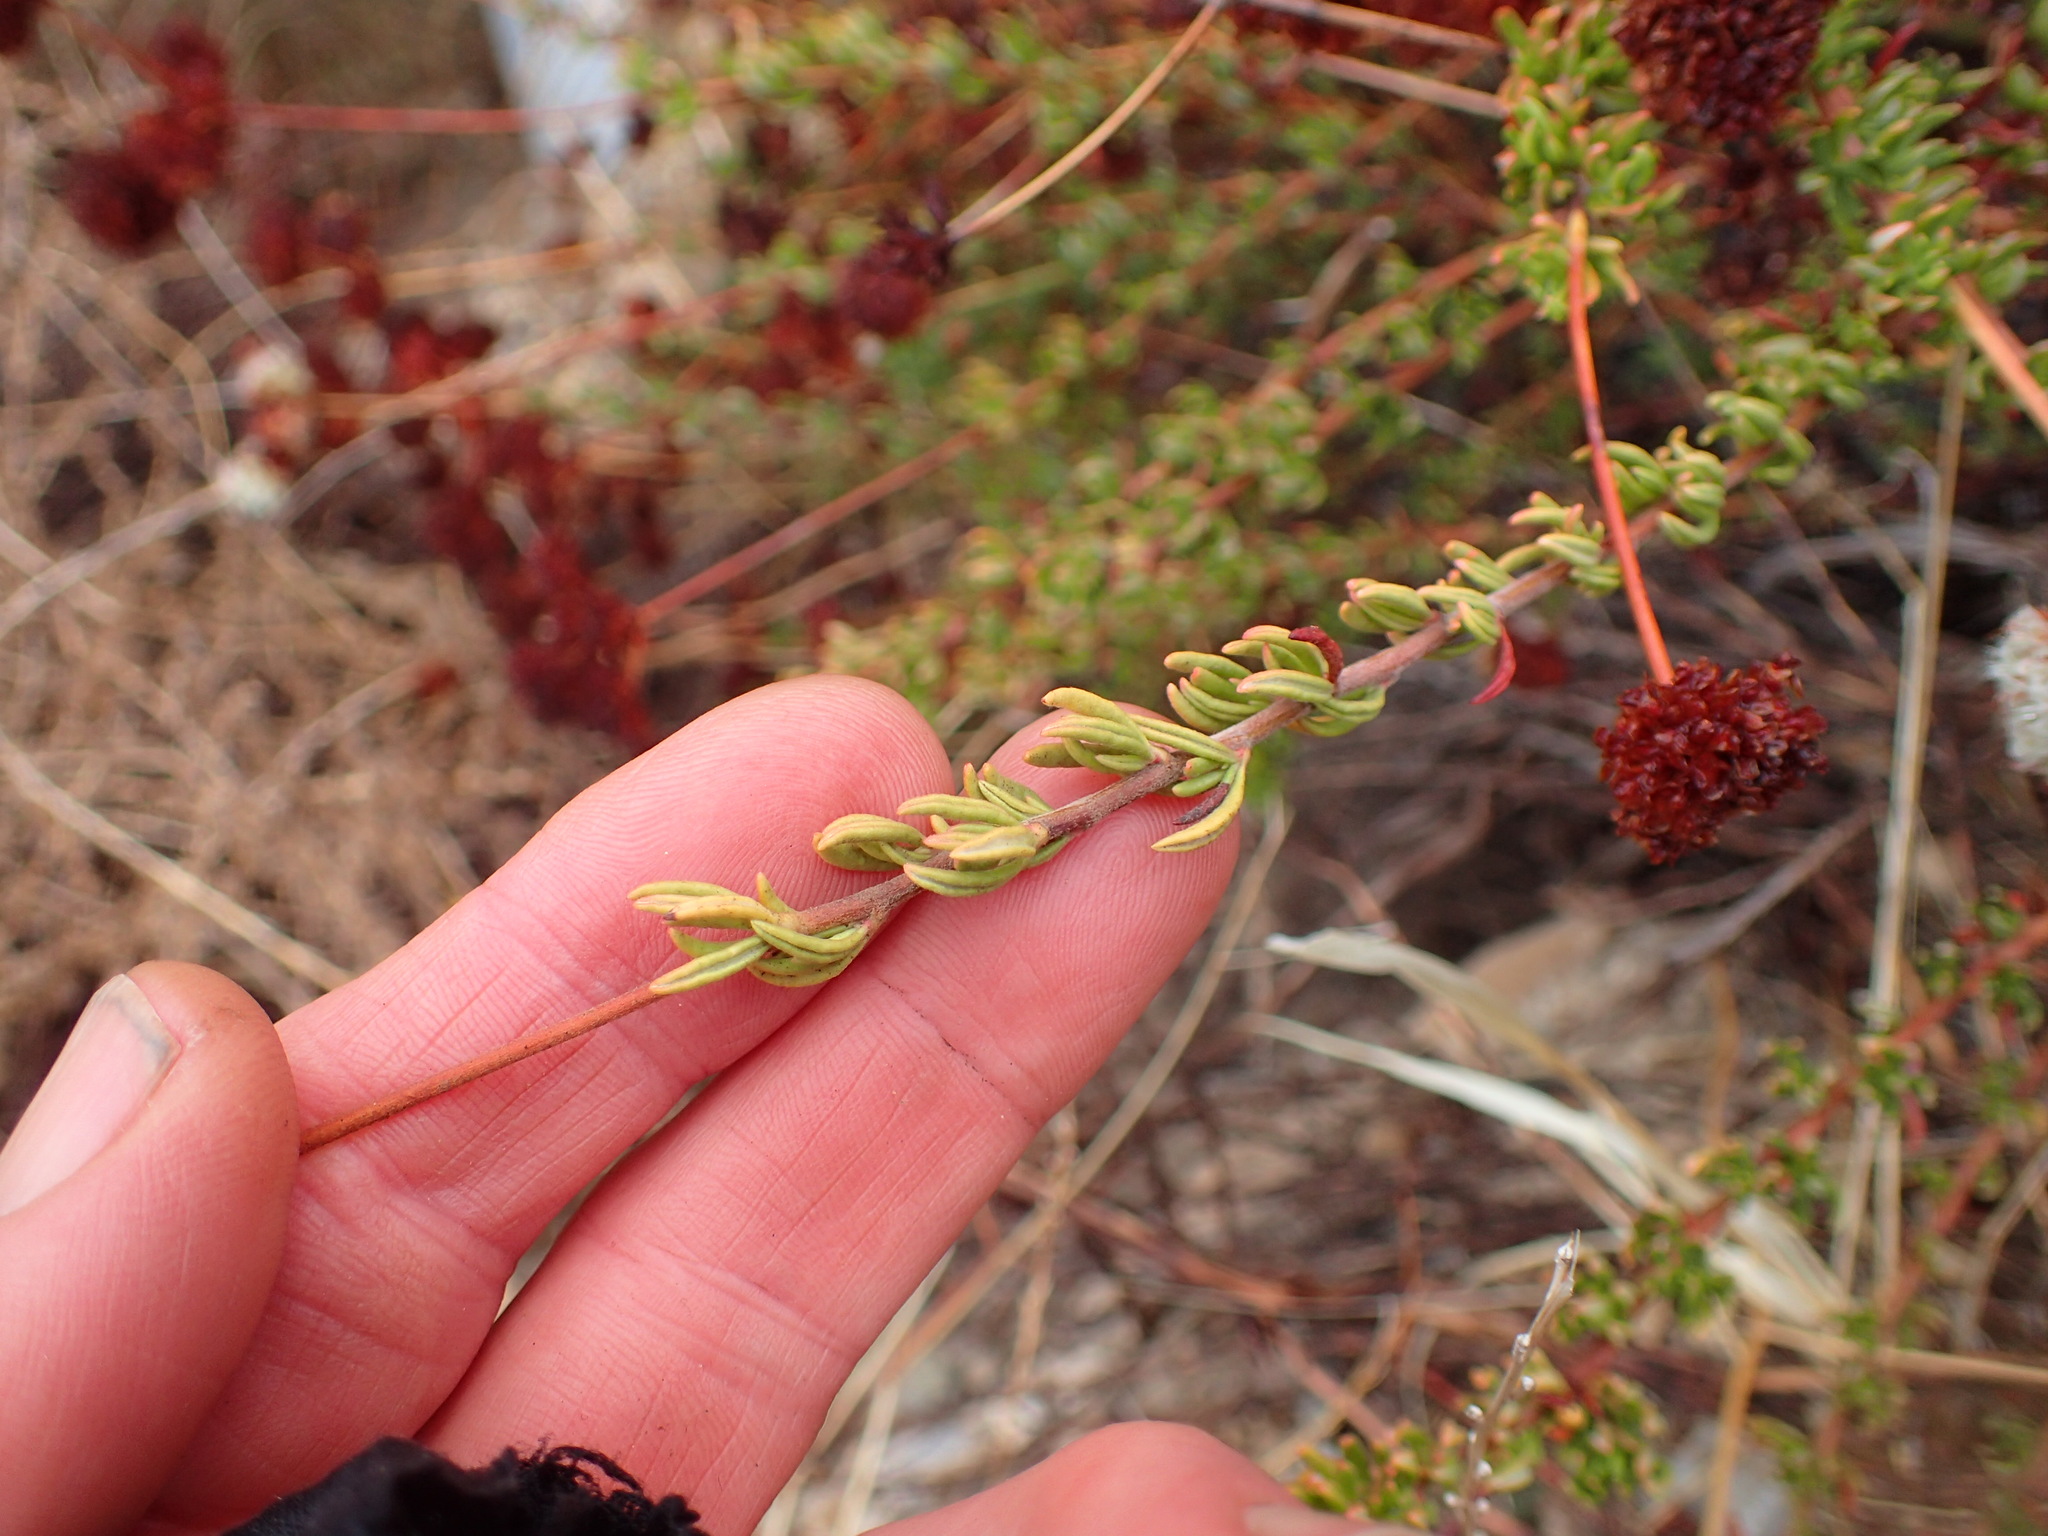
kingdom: Plantae
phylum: Tracheophyta
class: Magnoliopsida
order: Caryophyllales
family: Polygonaceae
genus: Eriogonum
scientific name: Eriogonum fasciculatum
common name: California wild buckwheat
